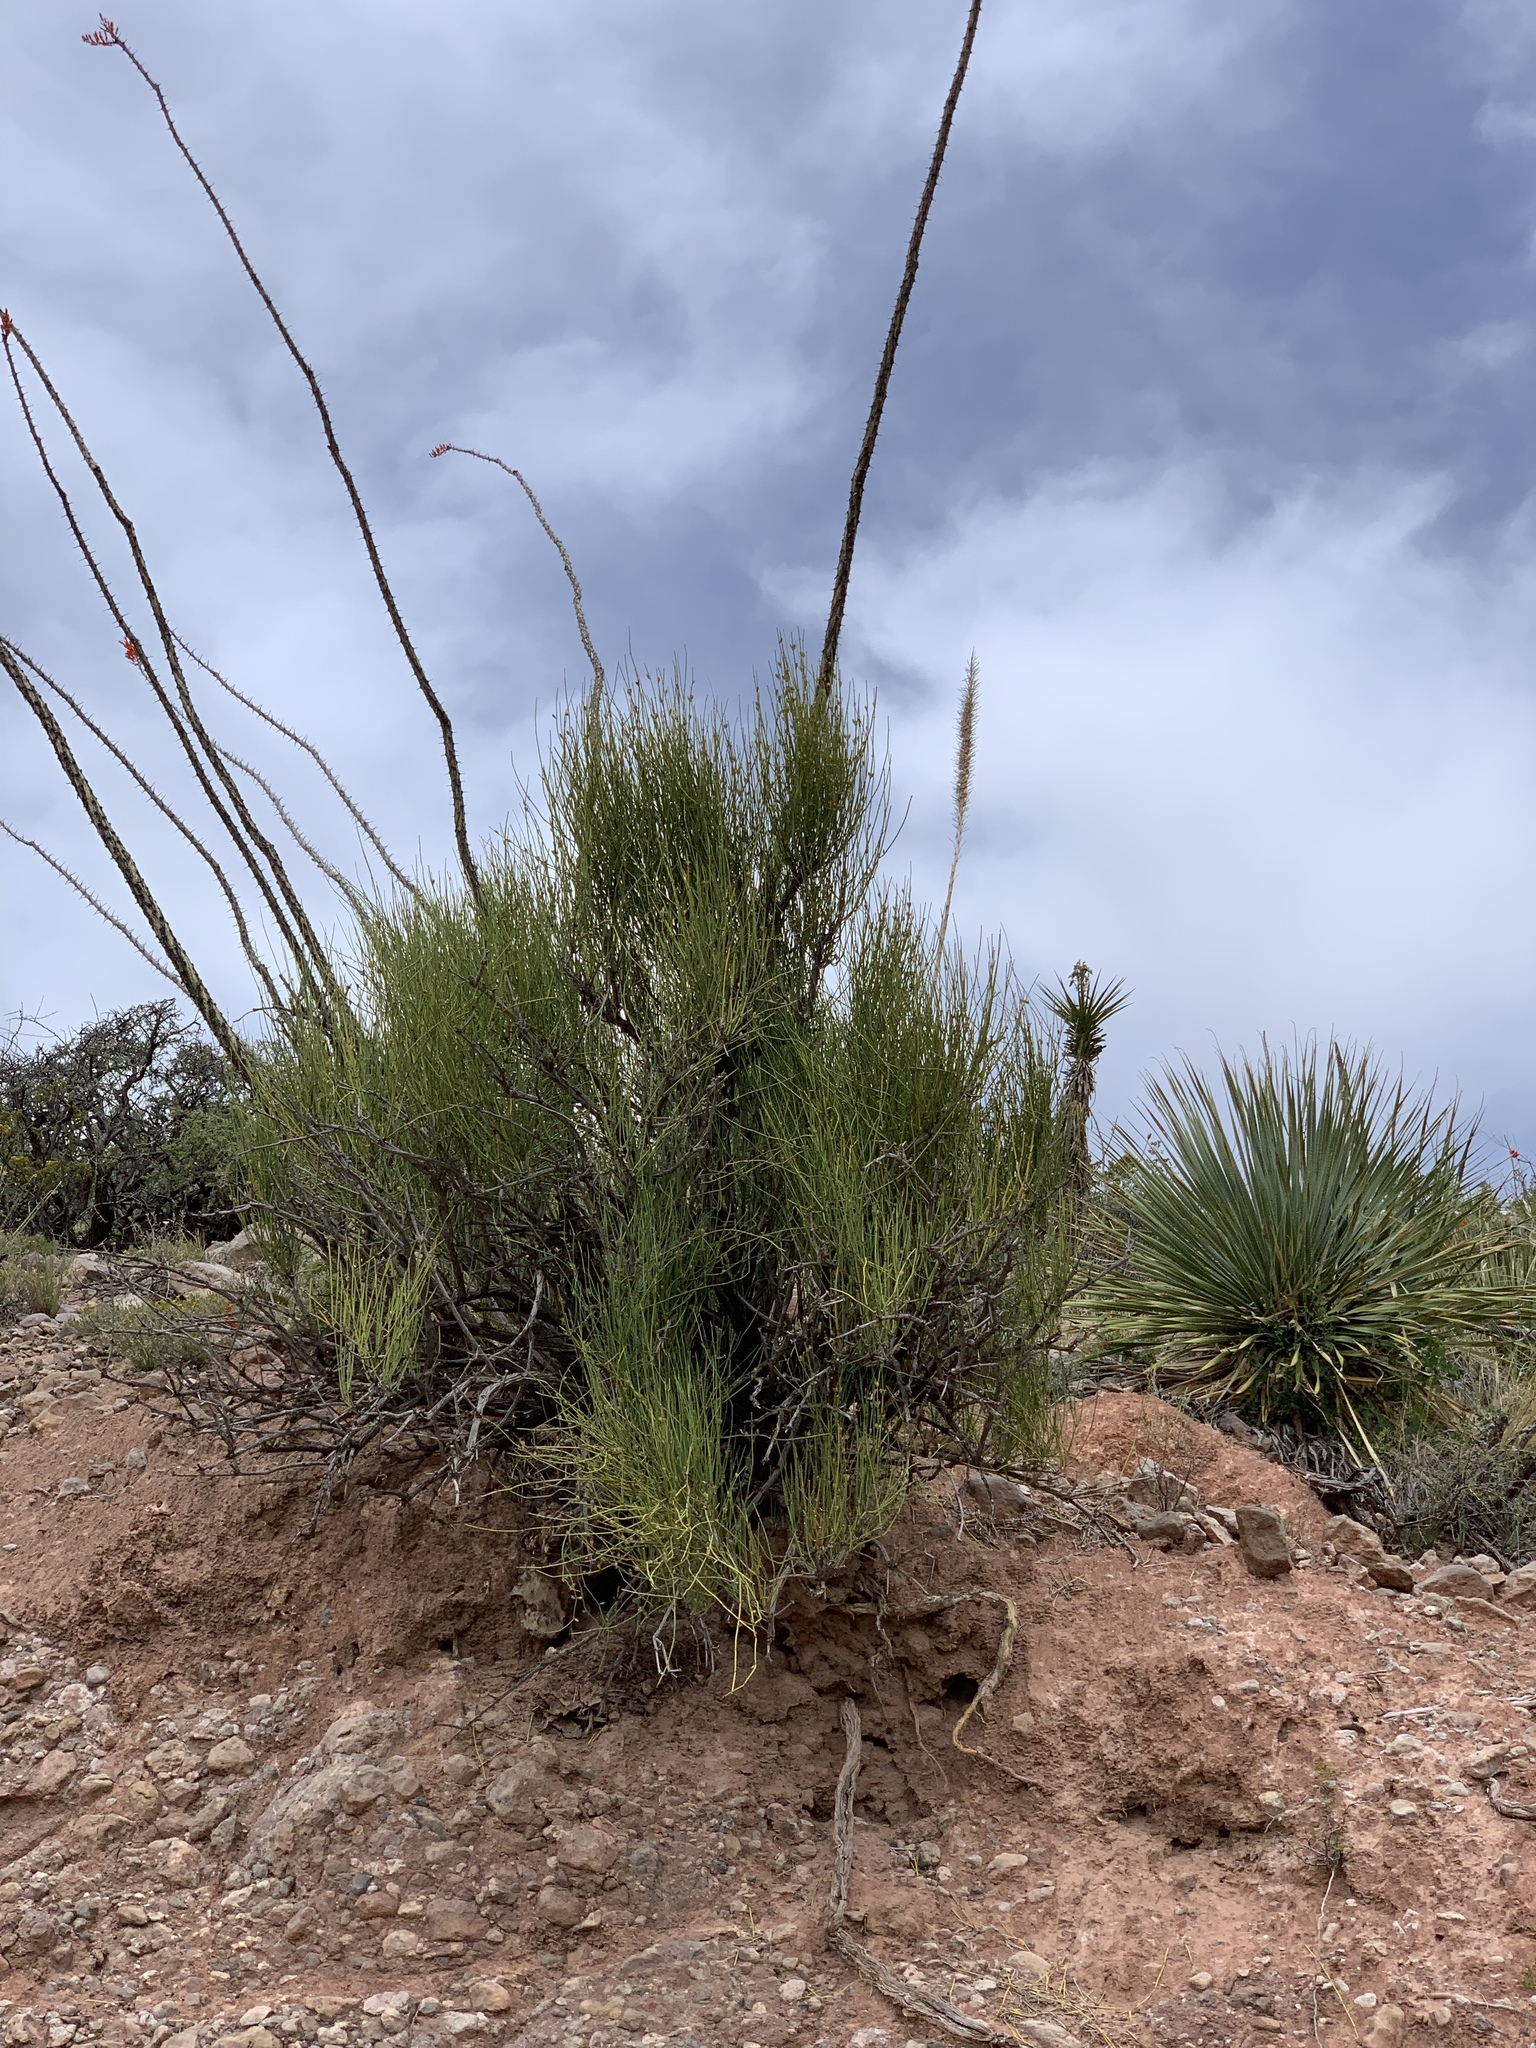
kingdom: Plantae
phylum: Tracheophyta
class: Gnetopsida
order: Ephedrales
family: Ephedraceae
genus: Ephedra
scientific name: Ephedra trifurca
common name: Mexican-tea
